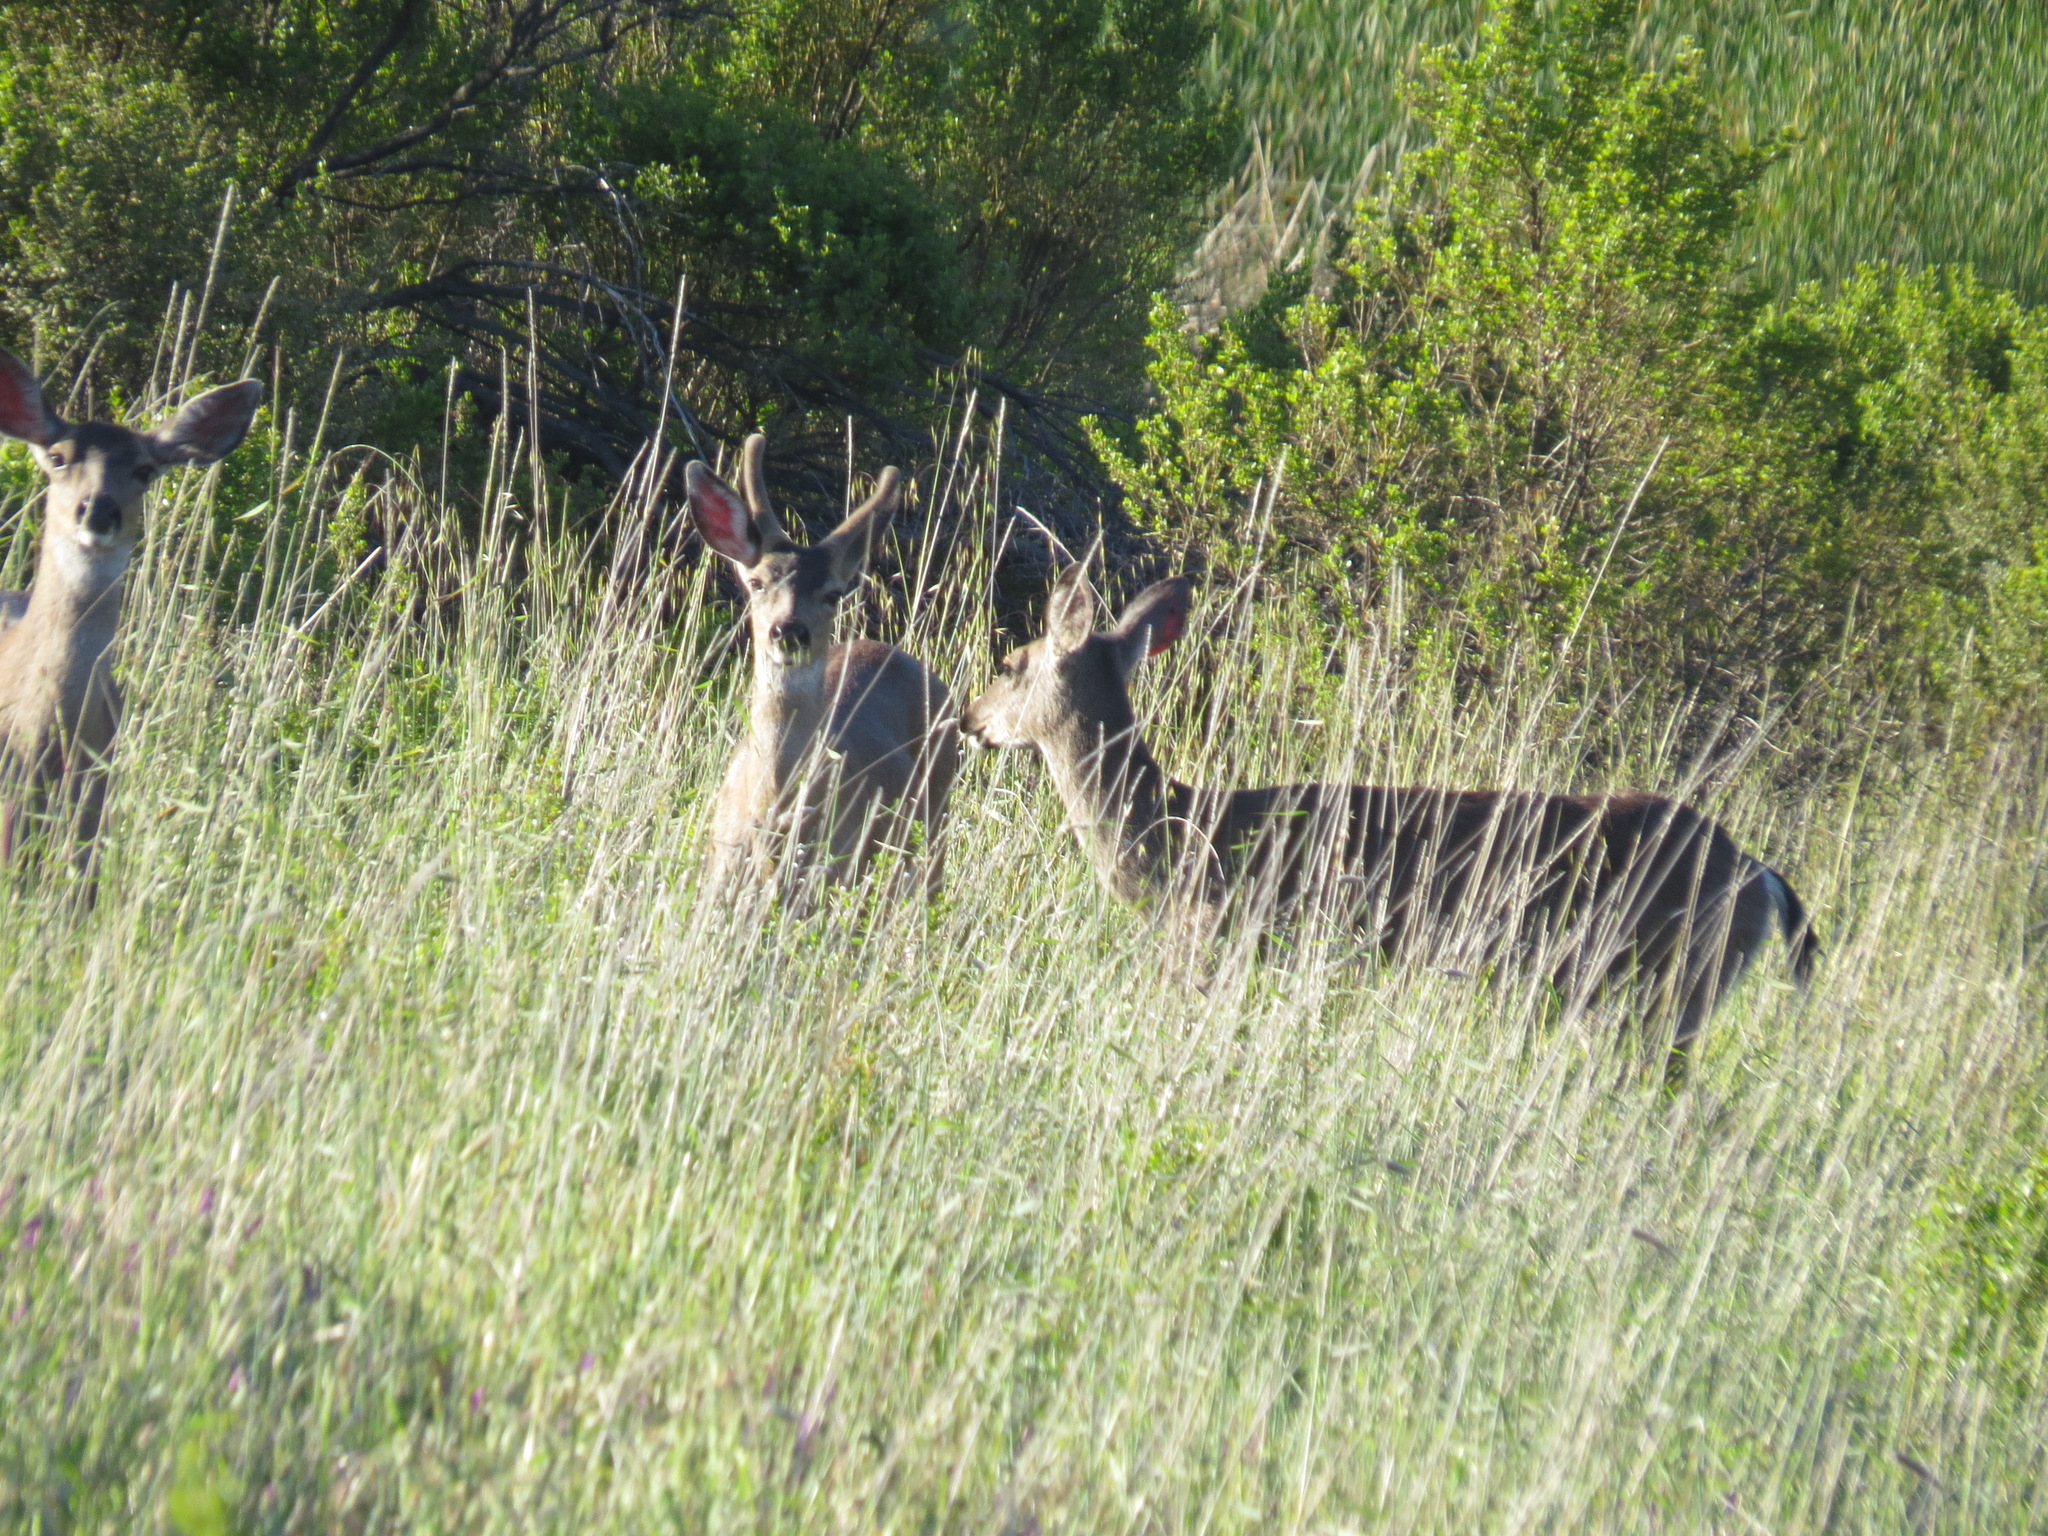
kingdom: Animalia
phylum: Chordata
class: Mammalia
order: Artiodactyla
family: Cervidae
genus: Odocoileus
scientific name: Odocoileus hemionus
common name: Mule deer
